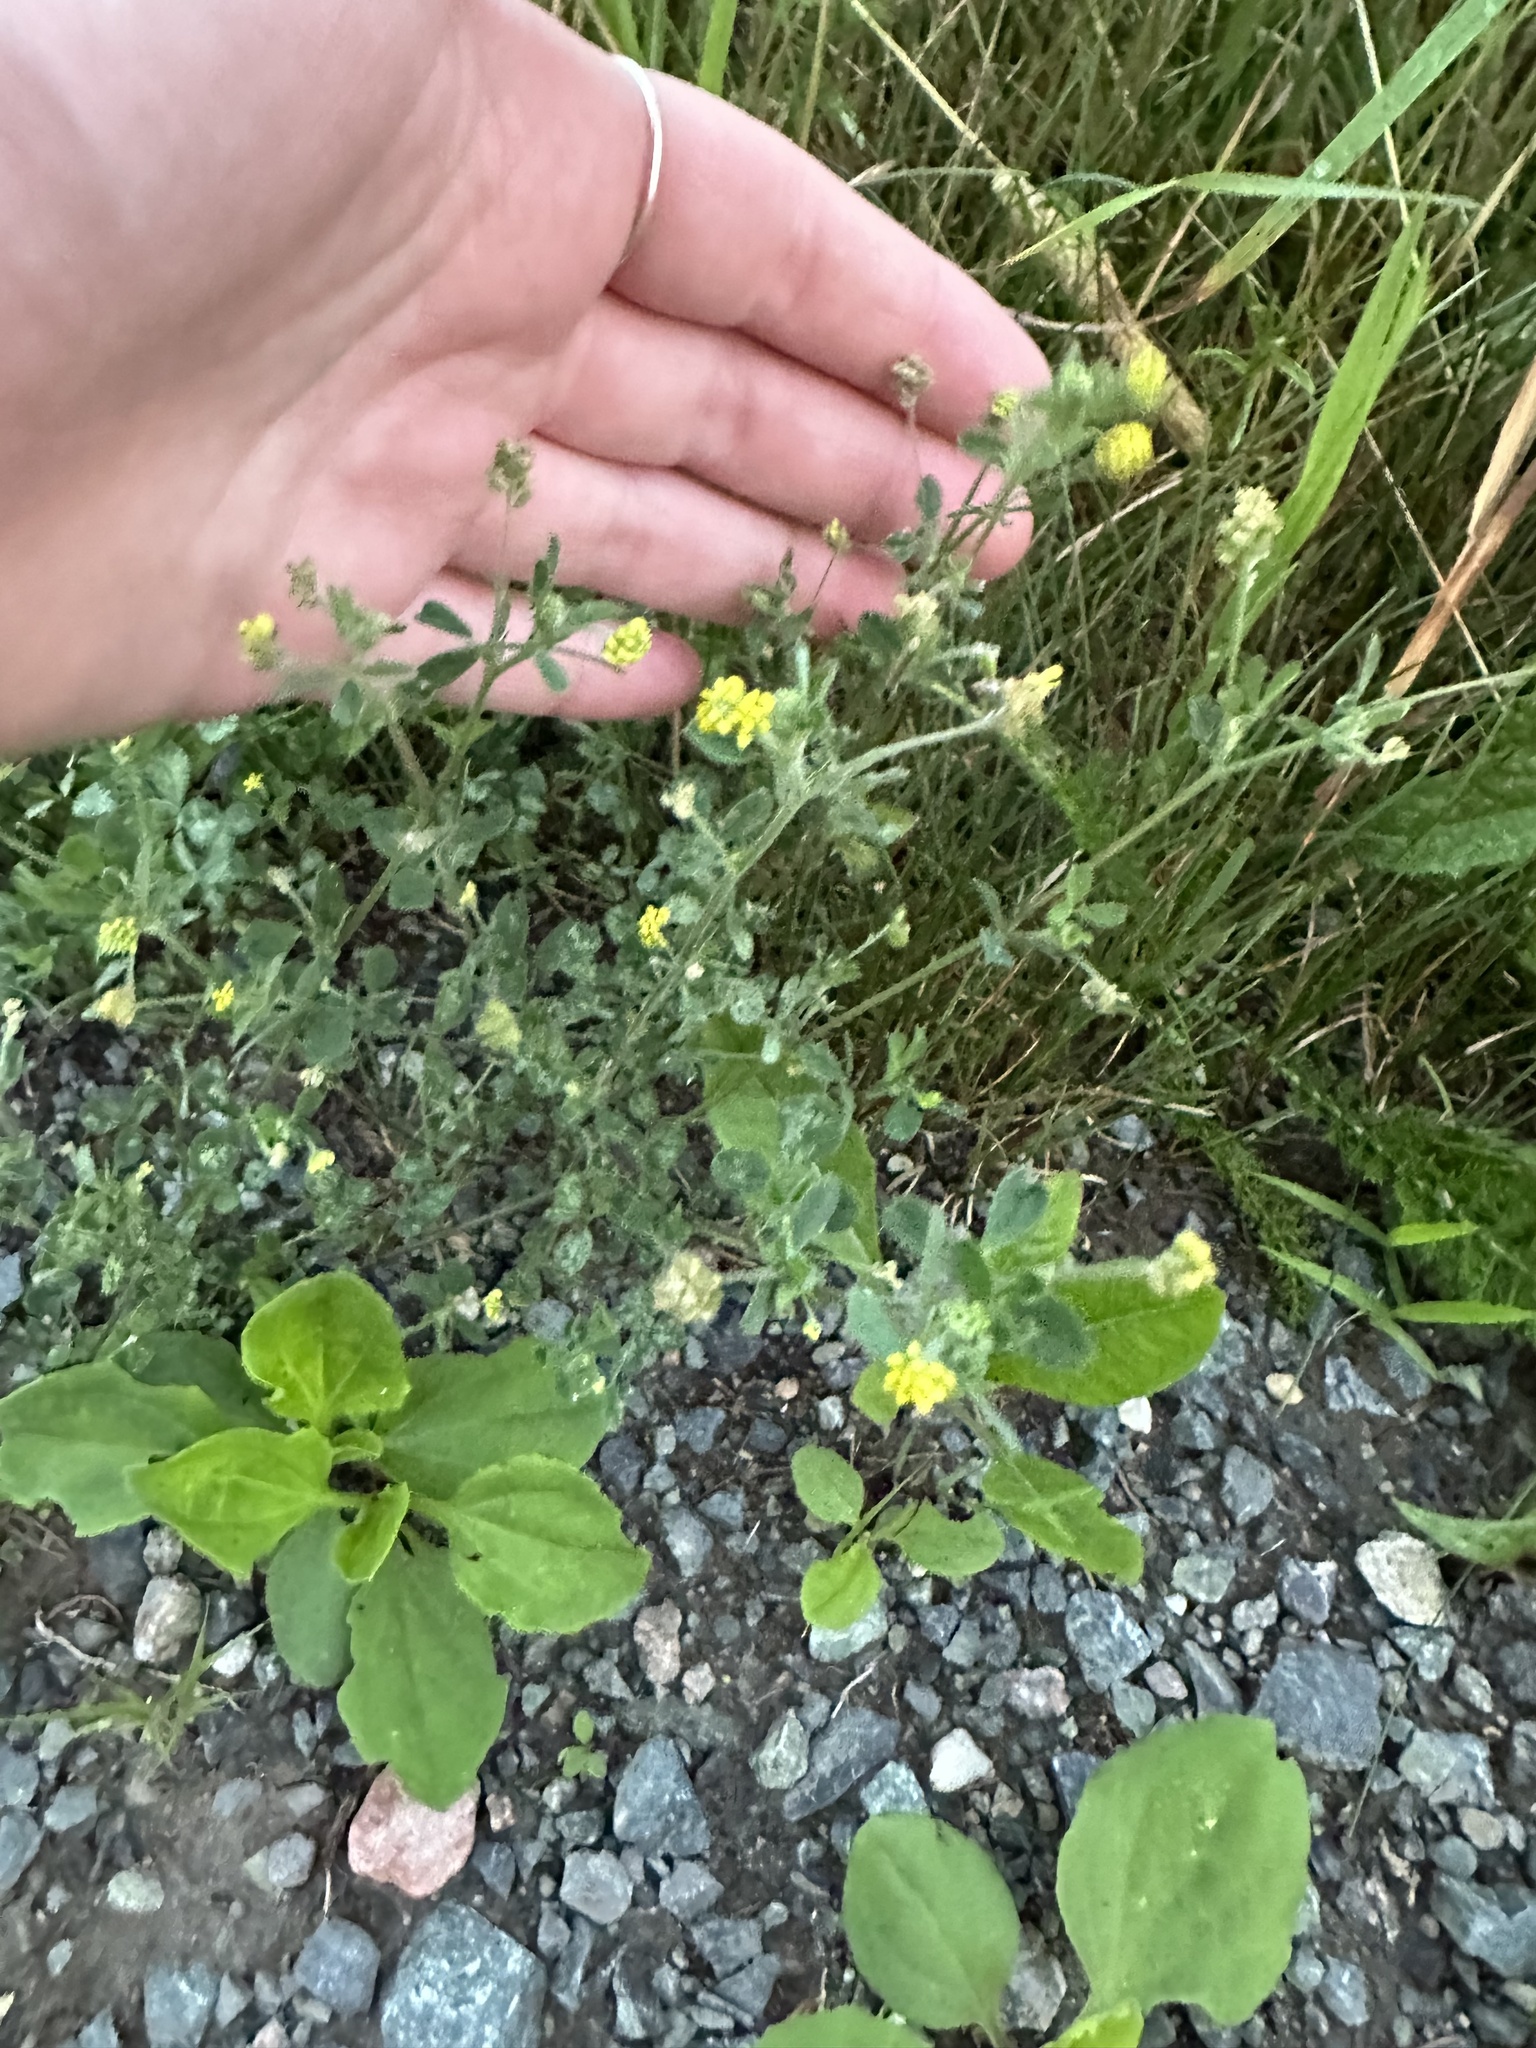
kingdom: Plantae
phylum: Tracheophyta
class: Magnoliopsida
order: Fabales
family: Fabaceae
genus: Medicago
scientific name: Medicago lupulina
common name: Black medick
